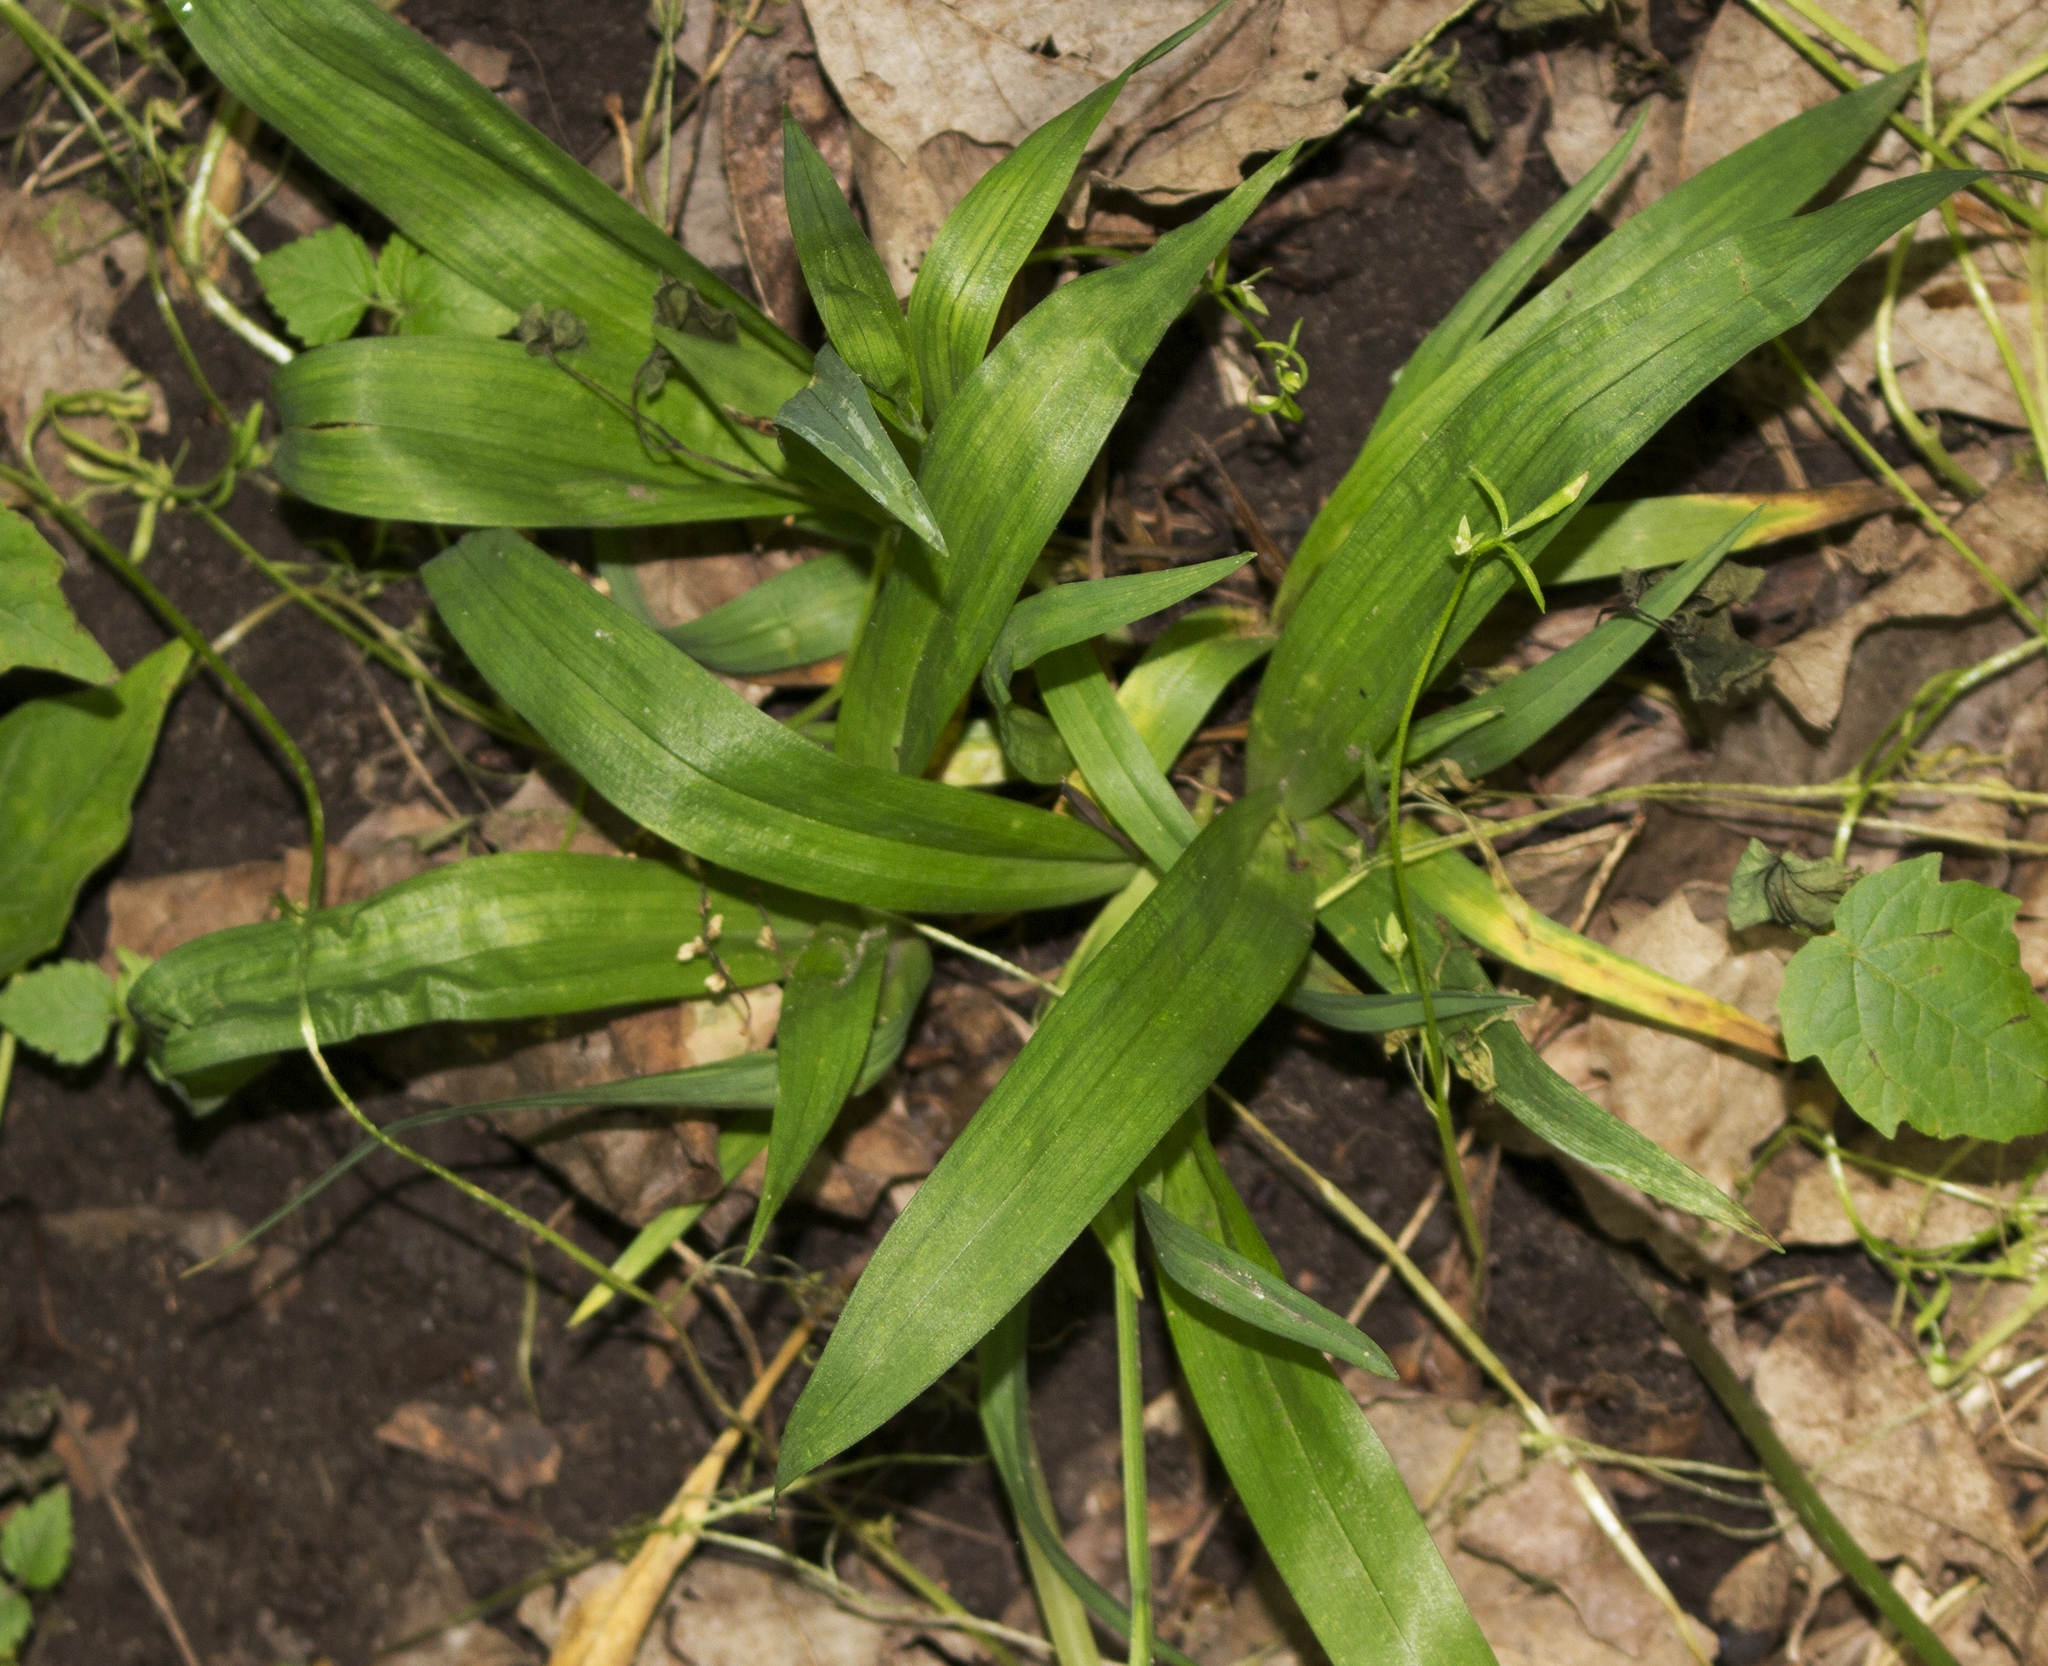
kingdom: Plantae
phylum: Tracheophyta
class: Liliopsida
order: Poales
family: Cyperaceae
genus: Carex
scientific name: Carex albursina
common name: Blunt-scale wood sedge
